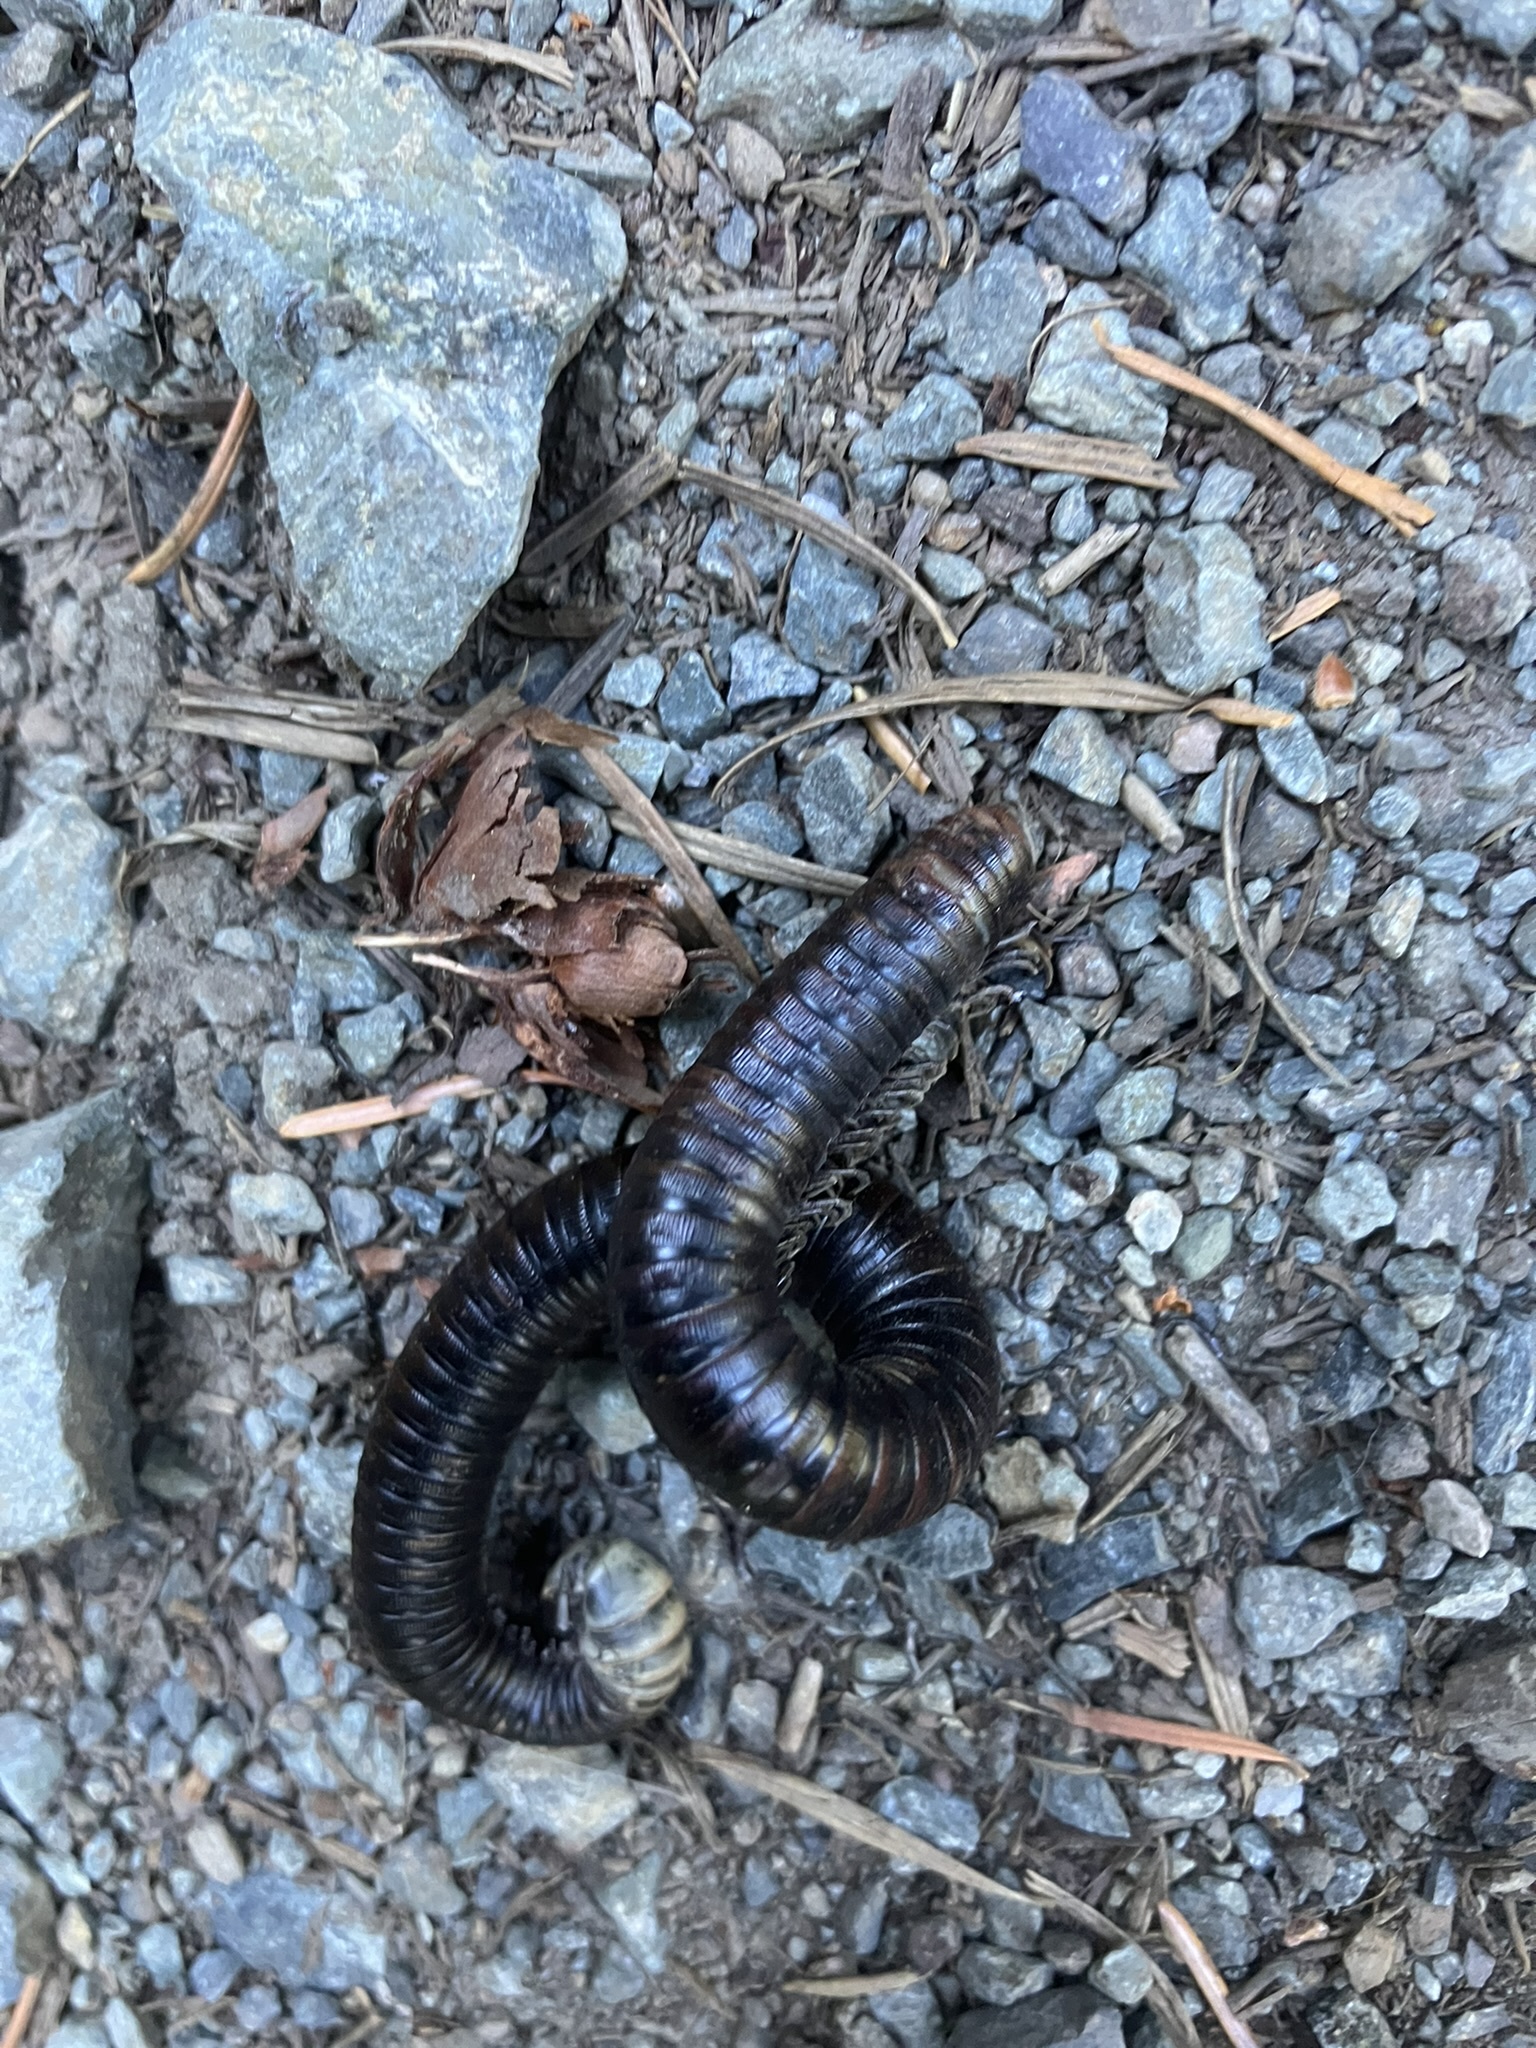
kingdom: Animalia
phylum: Arthropoda
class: Diplopoda
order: Julida
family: Paeromopodidae
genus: Paeromopus
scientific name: Paeromopus angusticeps
